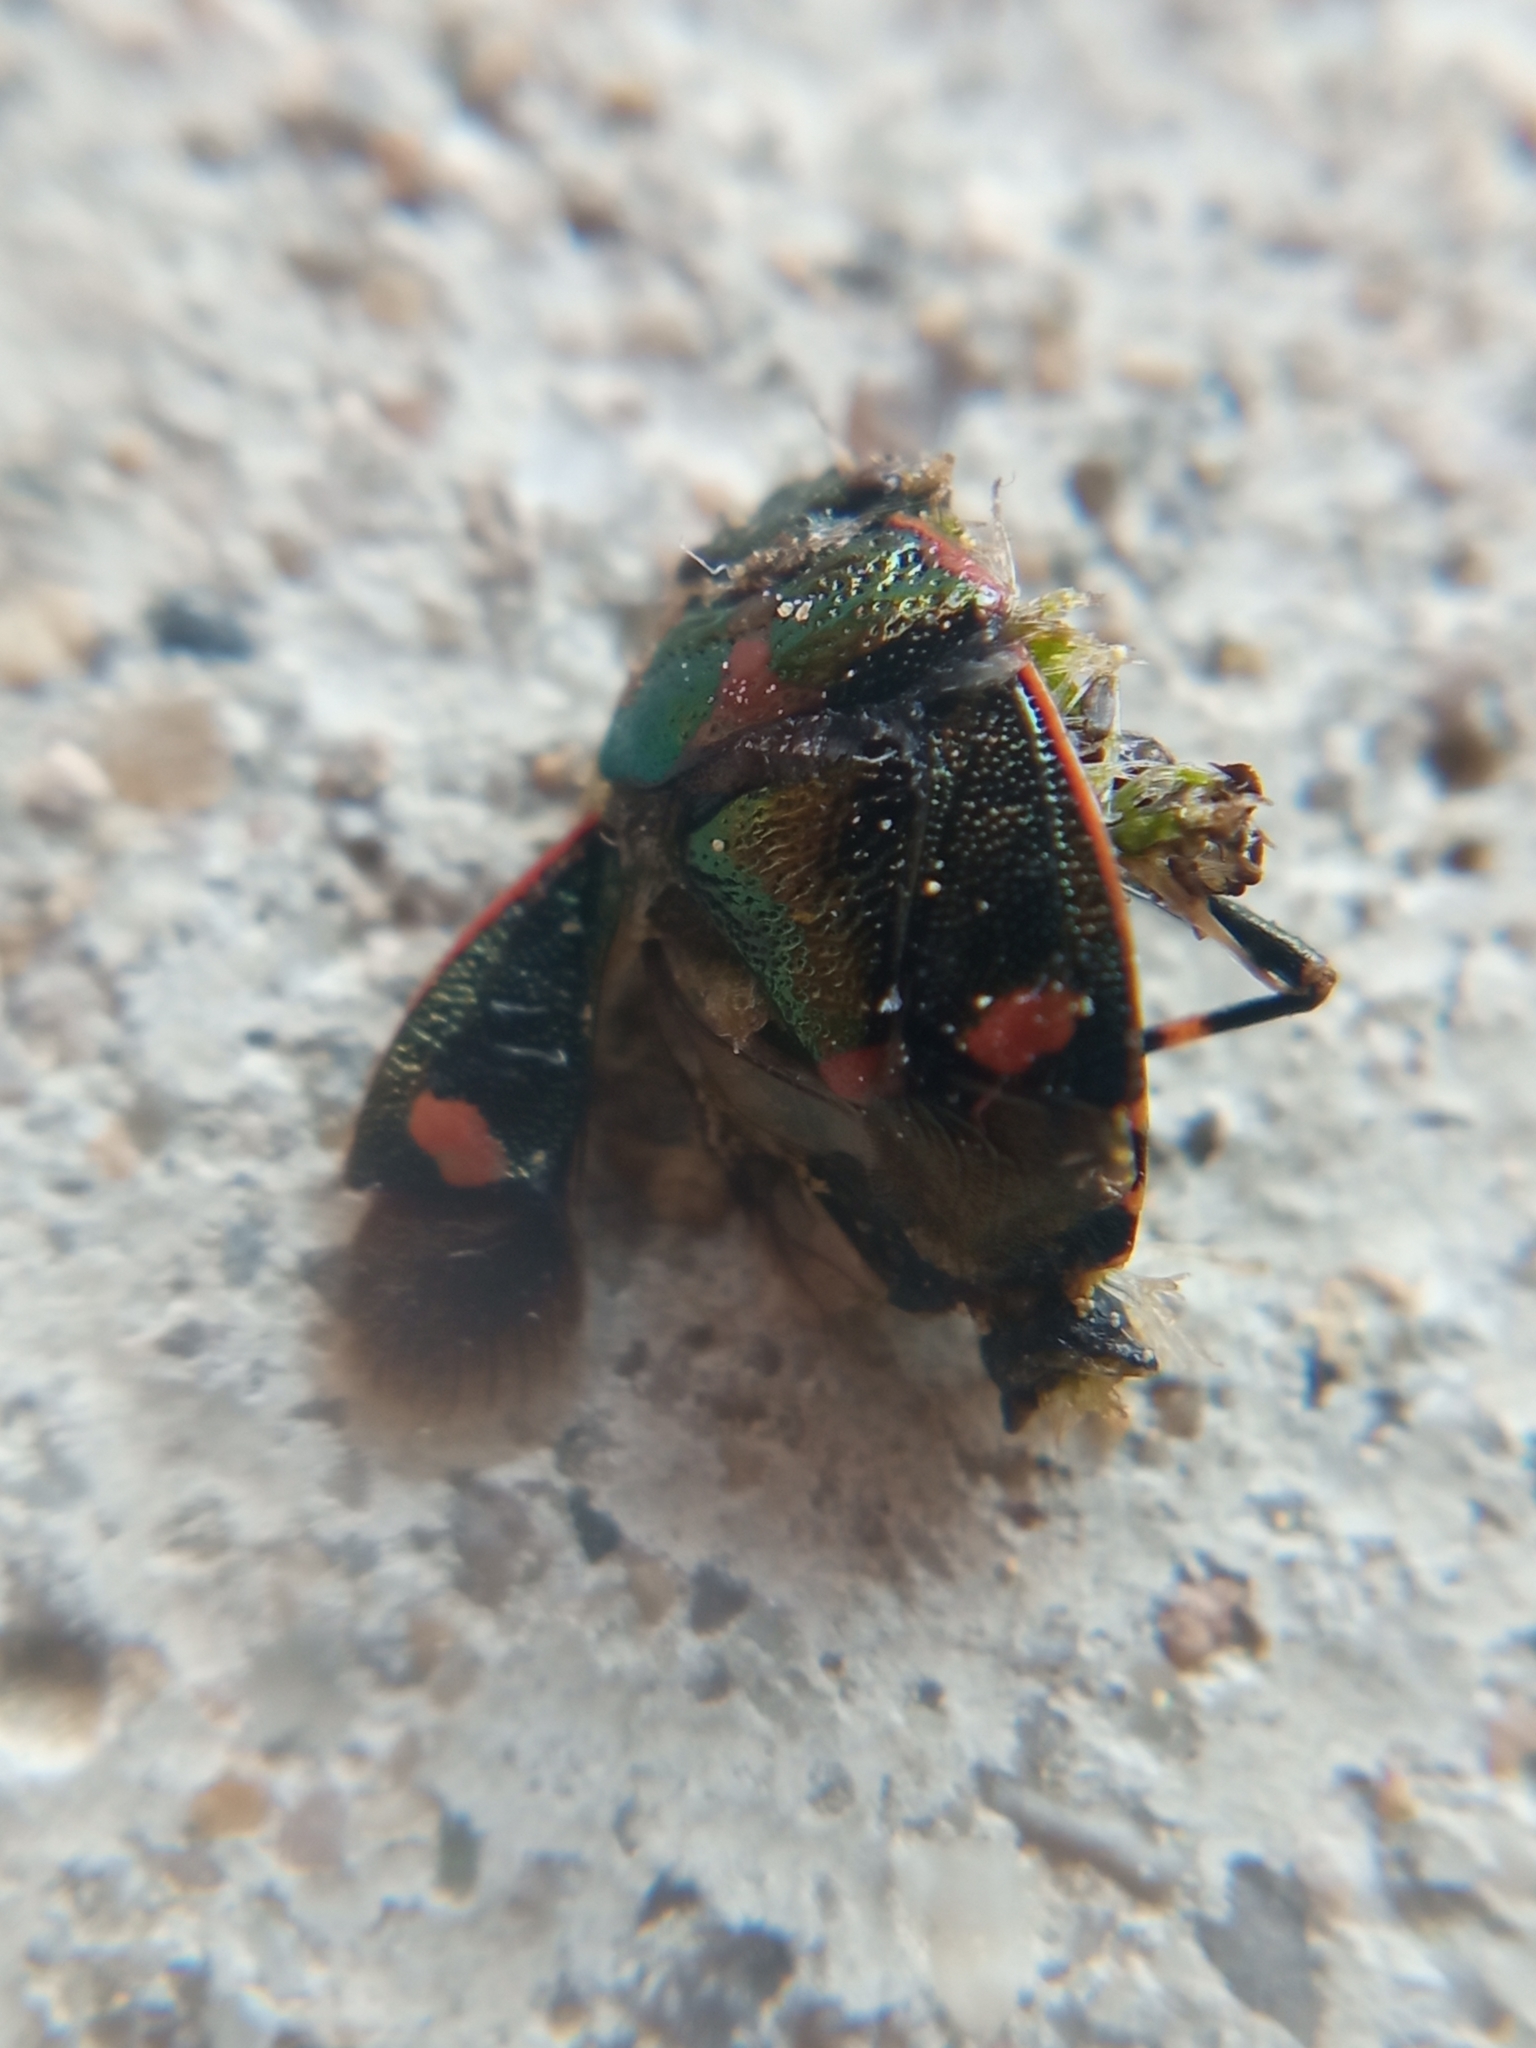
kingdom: Animalia
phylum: Arthropoda
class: Insecta
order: Hemiptera
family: Pentatomidae
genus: Eurydema
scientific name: Eurydema oleracea
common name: Cabbage bug
